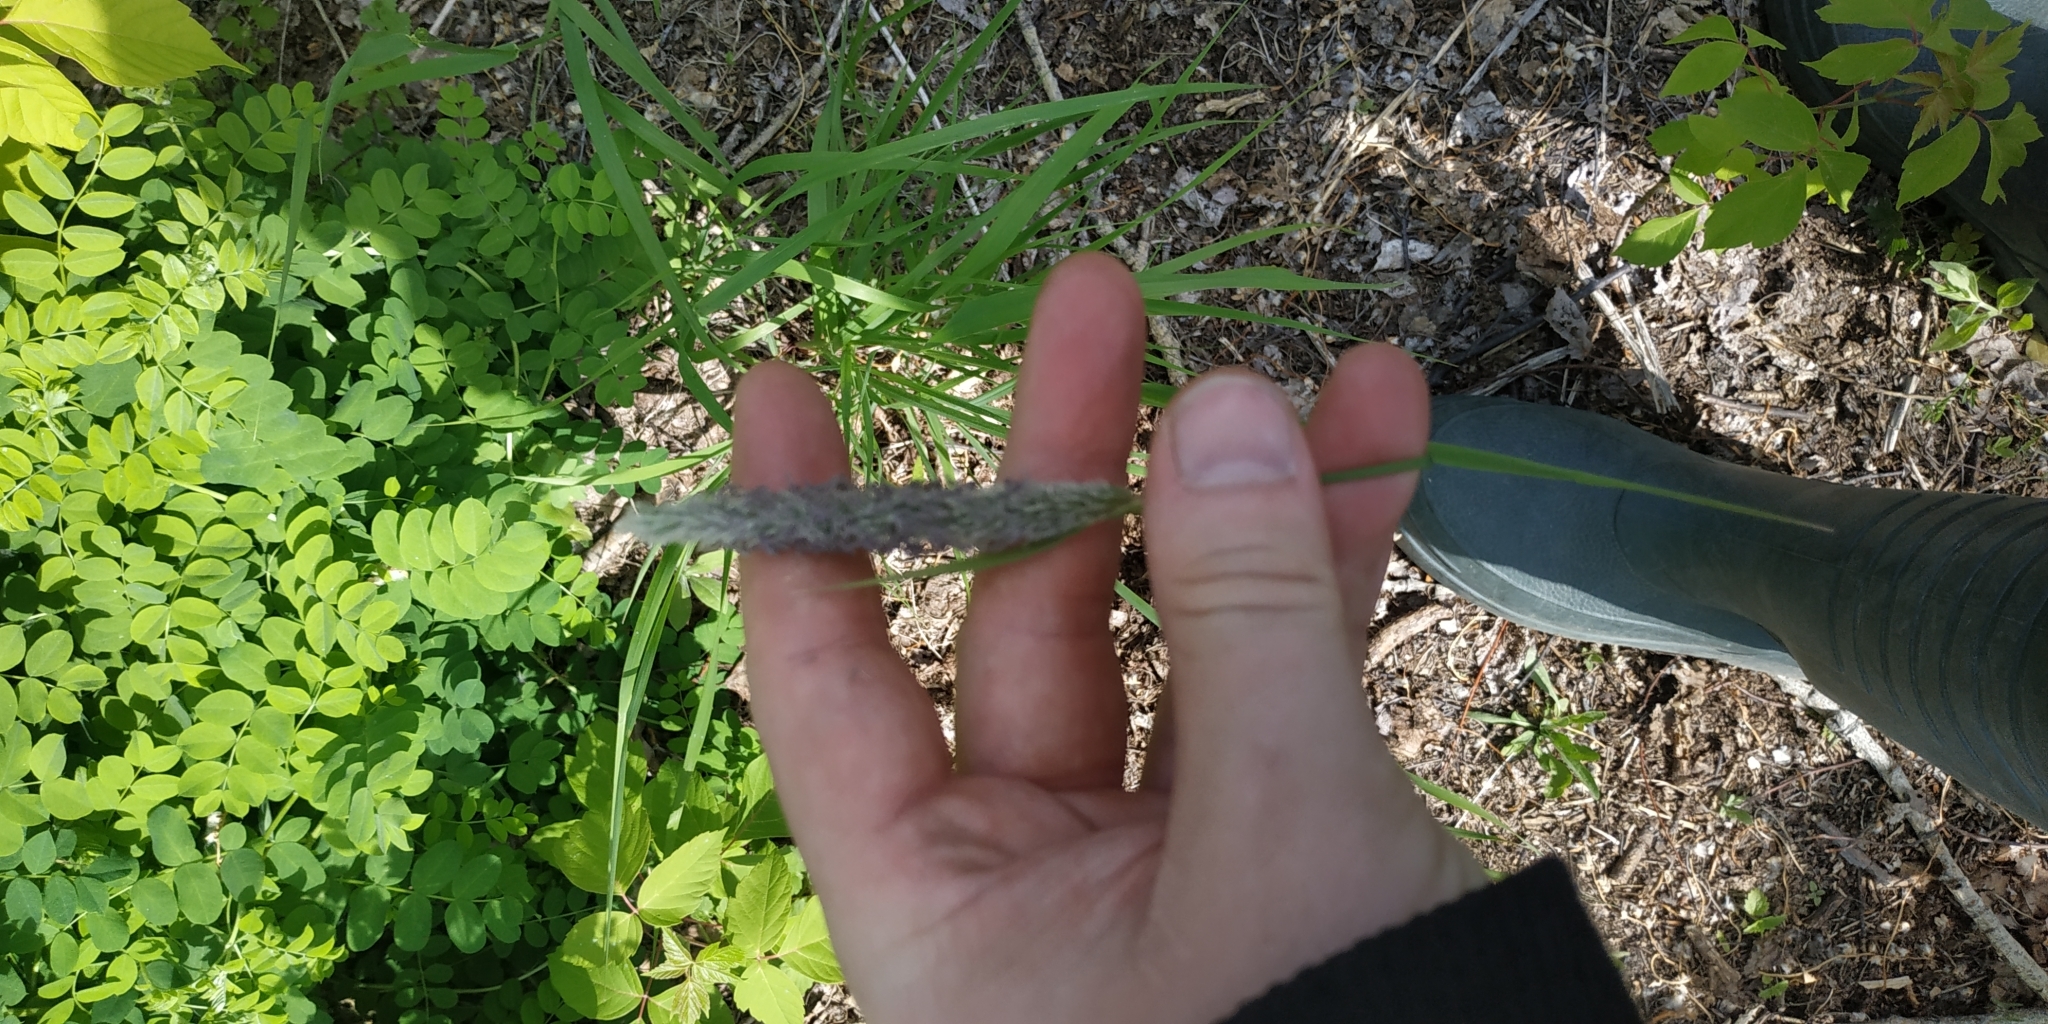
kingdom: Plantae
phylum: Tracheophyta
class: Liliopsida
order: Poales
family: Poaceae
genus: Alopecurus
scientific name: Alopecurus pratensis
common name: Meadow foxtail
